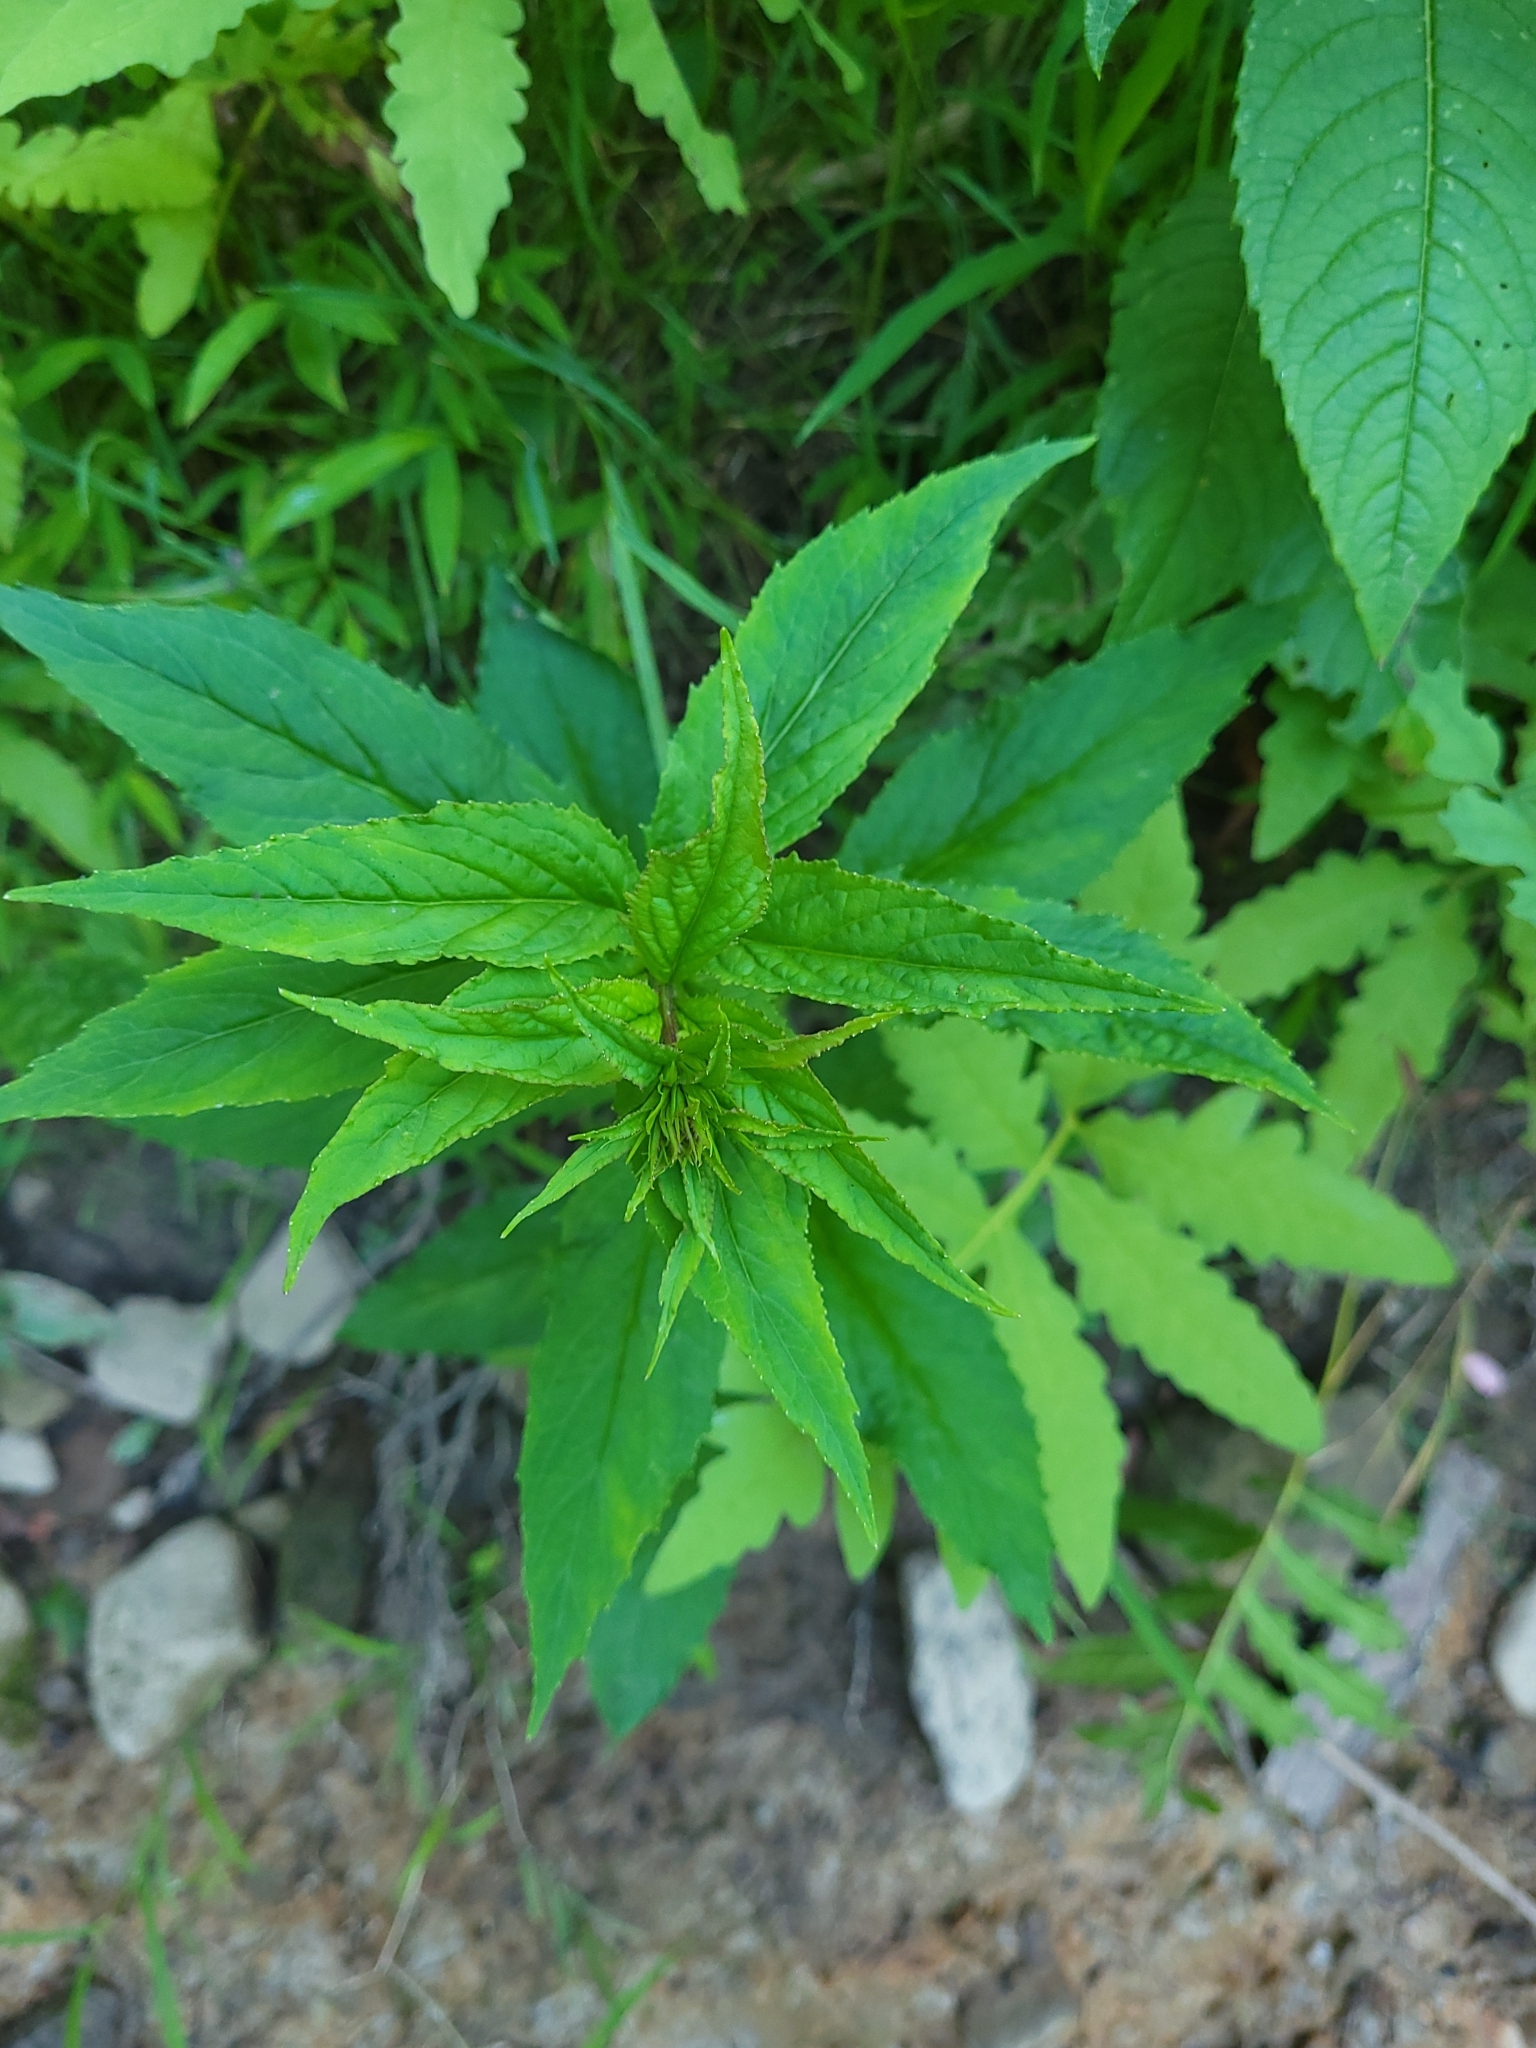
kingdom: Plantae
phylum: Tracheophyta
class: Magnoliopsida
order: Asterales
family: Campanulaceae
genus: Lobelia
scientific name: Lobelia cardinalis
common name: Cardinal flower
